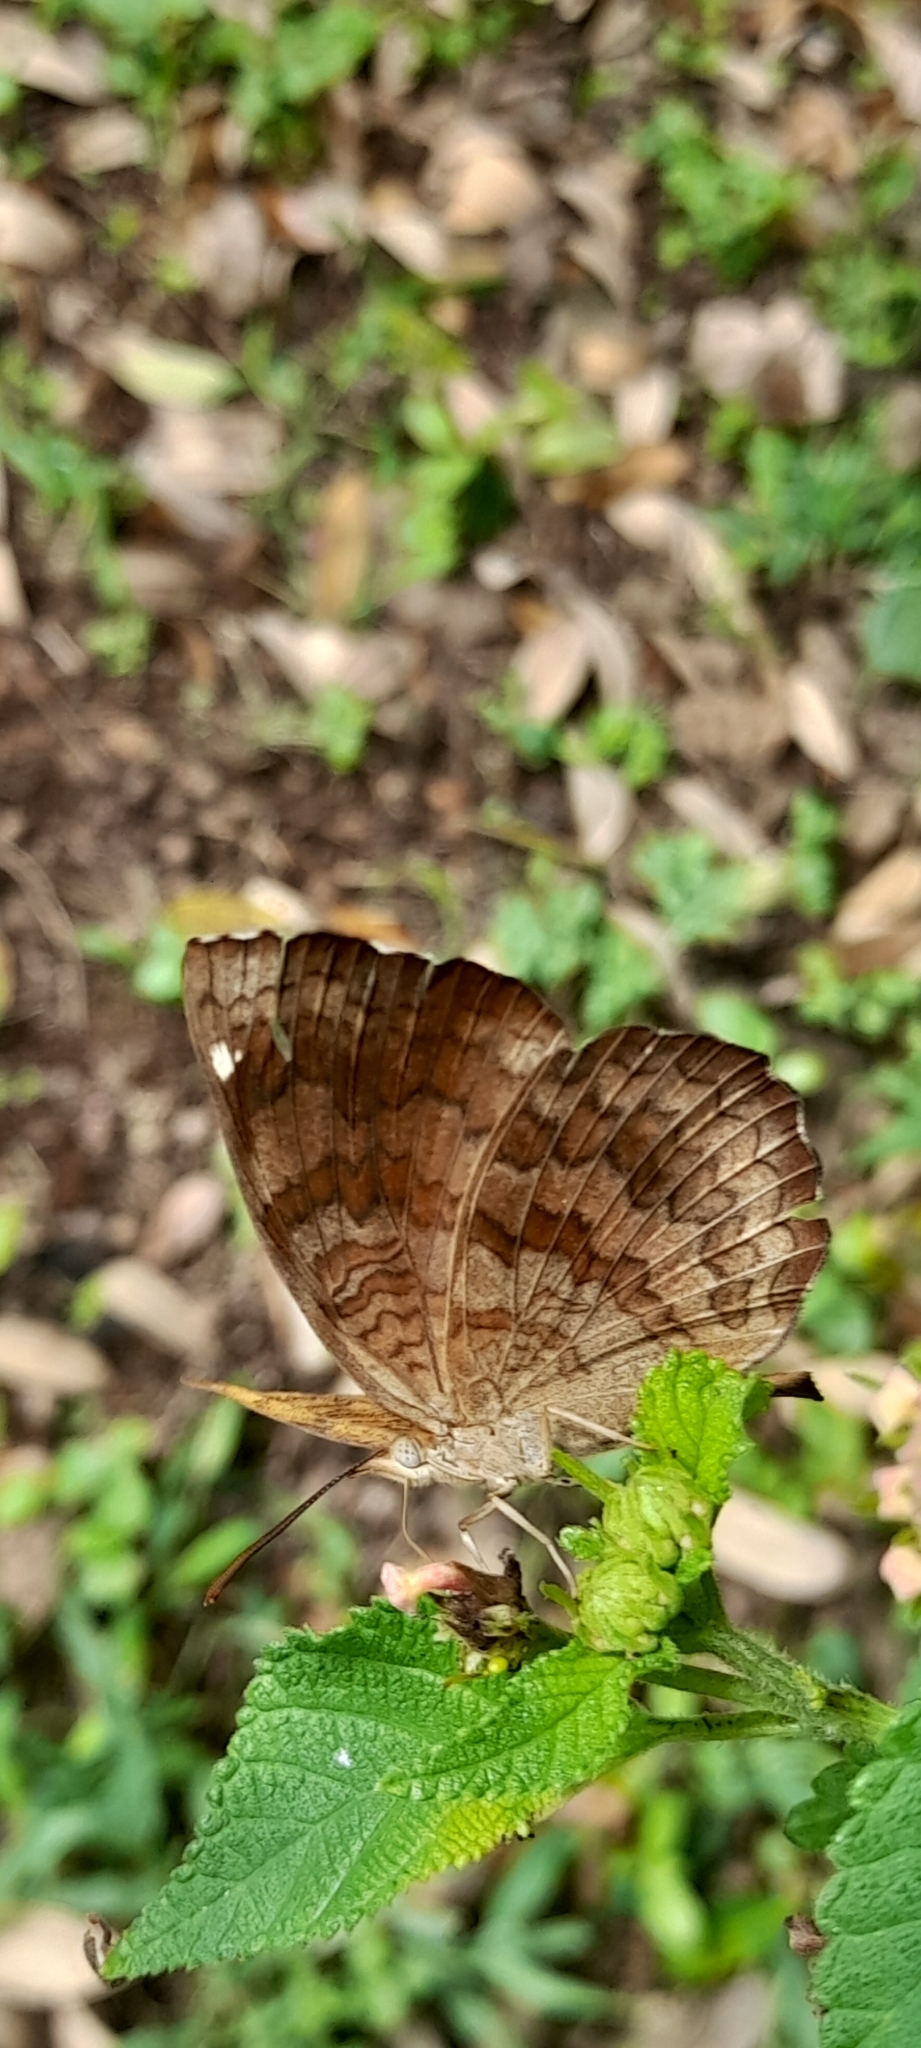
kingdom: Animalia
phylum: Arthropoda
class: Insecta
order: Lepidoptera
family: Nymphalidae
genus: Ariadne
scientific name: Ariadne merione
